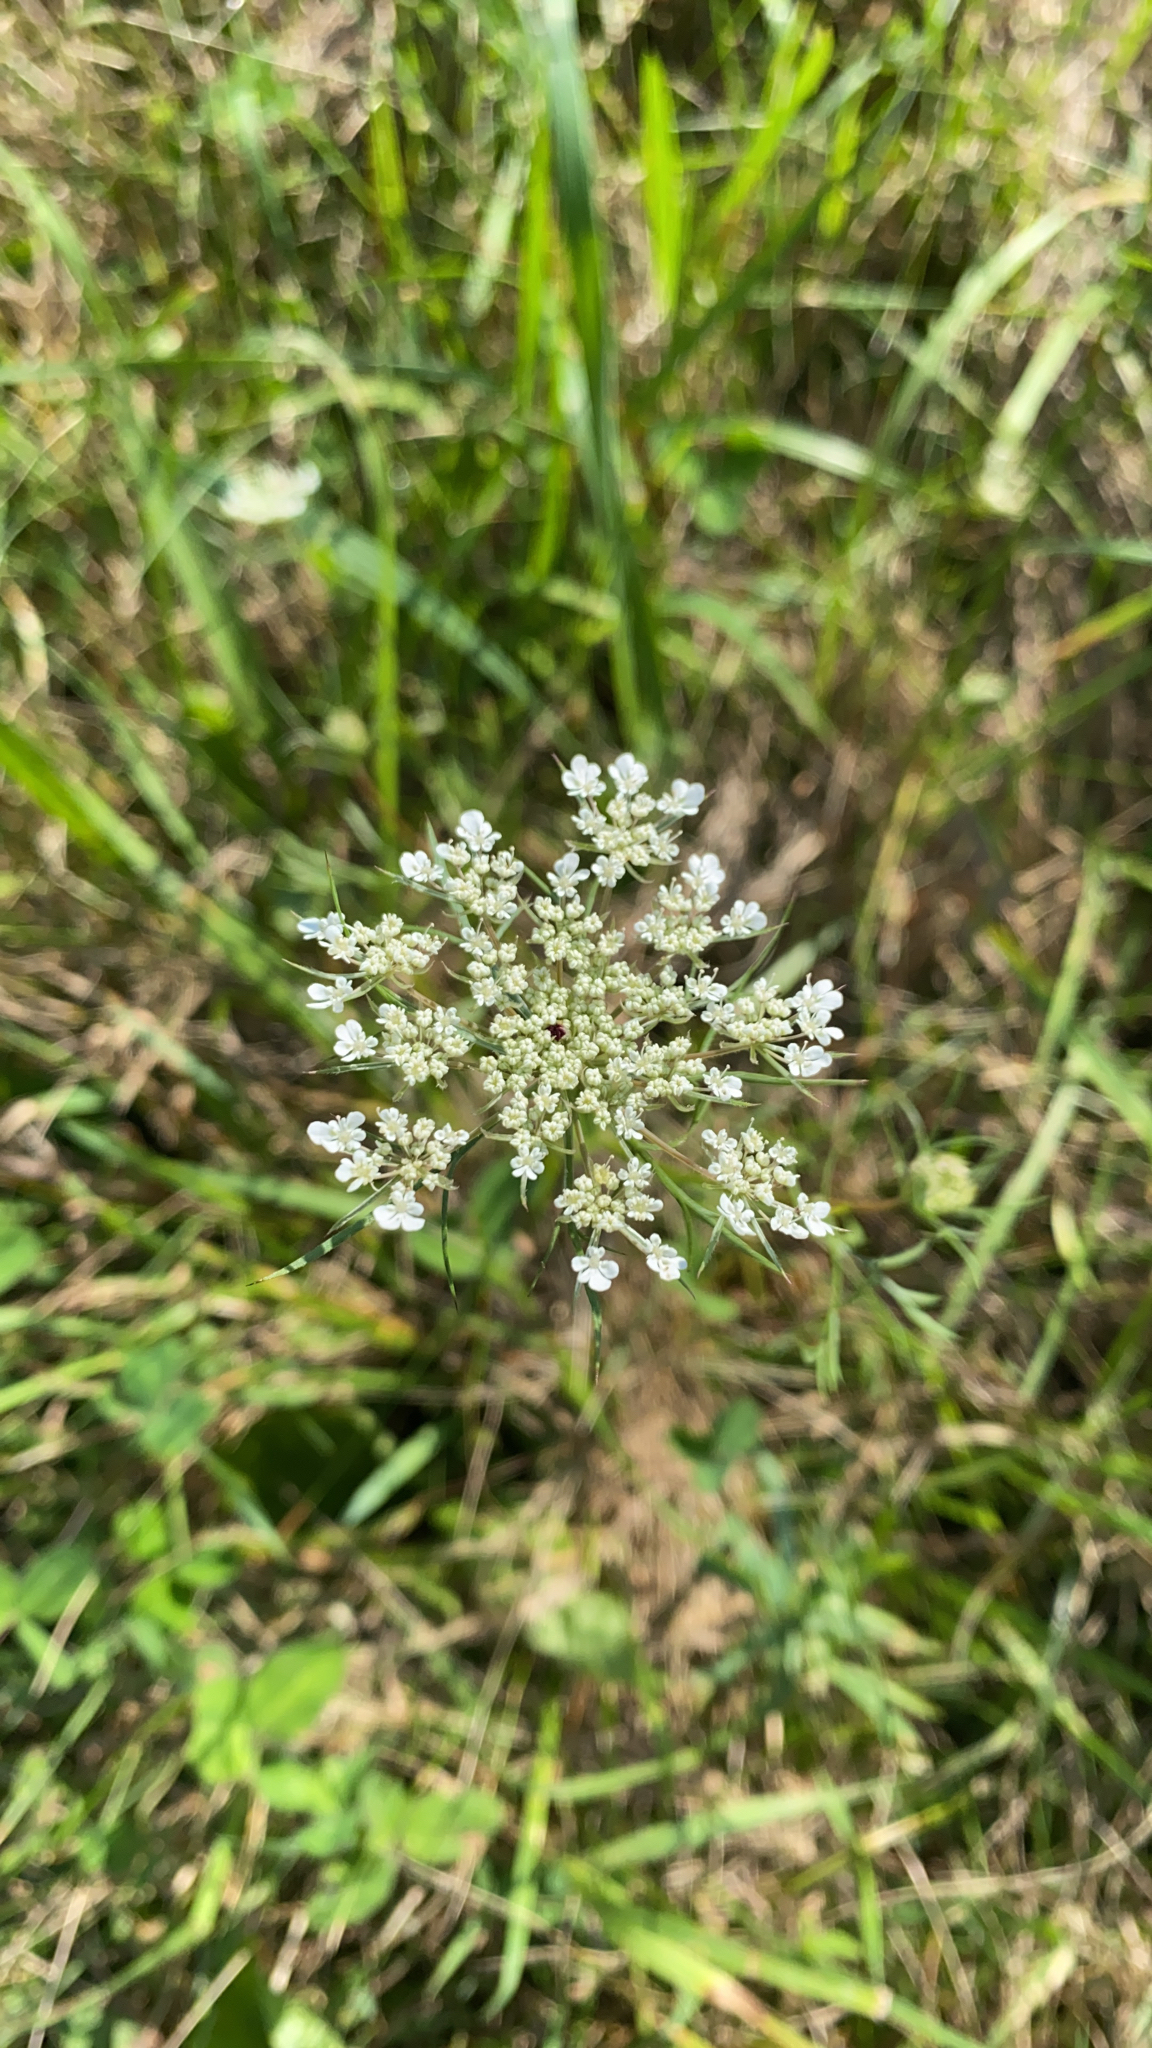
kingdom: Plantae
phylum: Tracheophyta
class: Magnoliopsida
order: Apiales
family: Apiaceae
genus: Daucus
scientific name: Daucus carota
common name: Wild carrot
